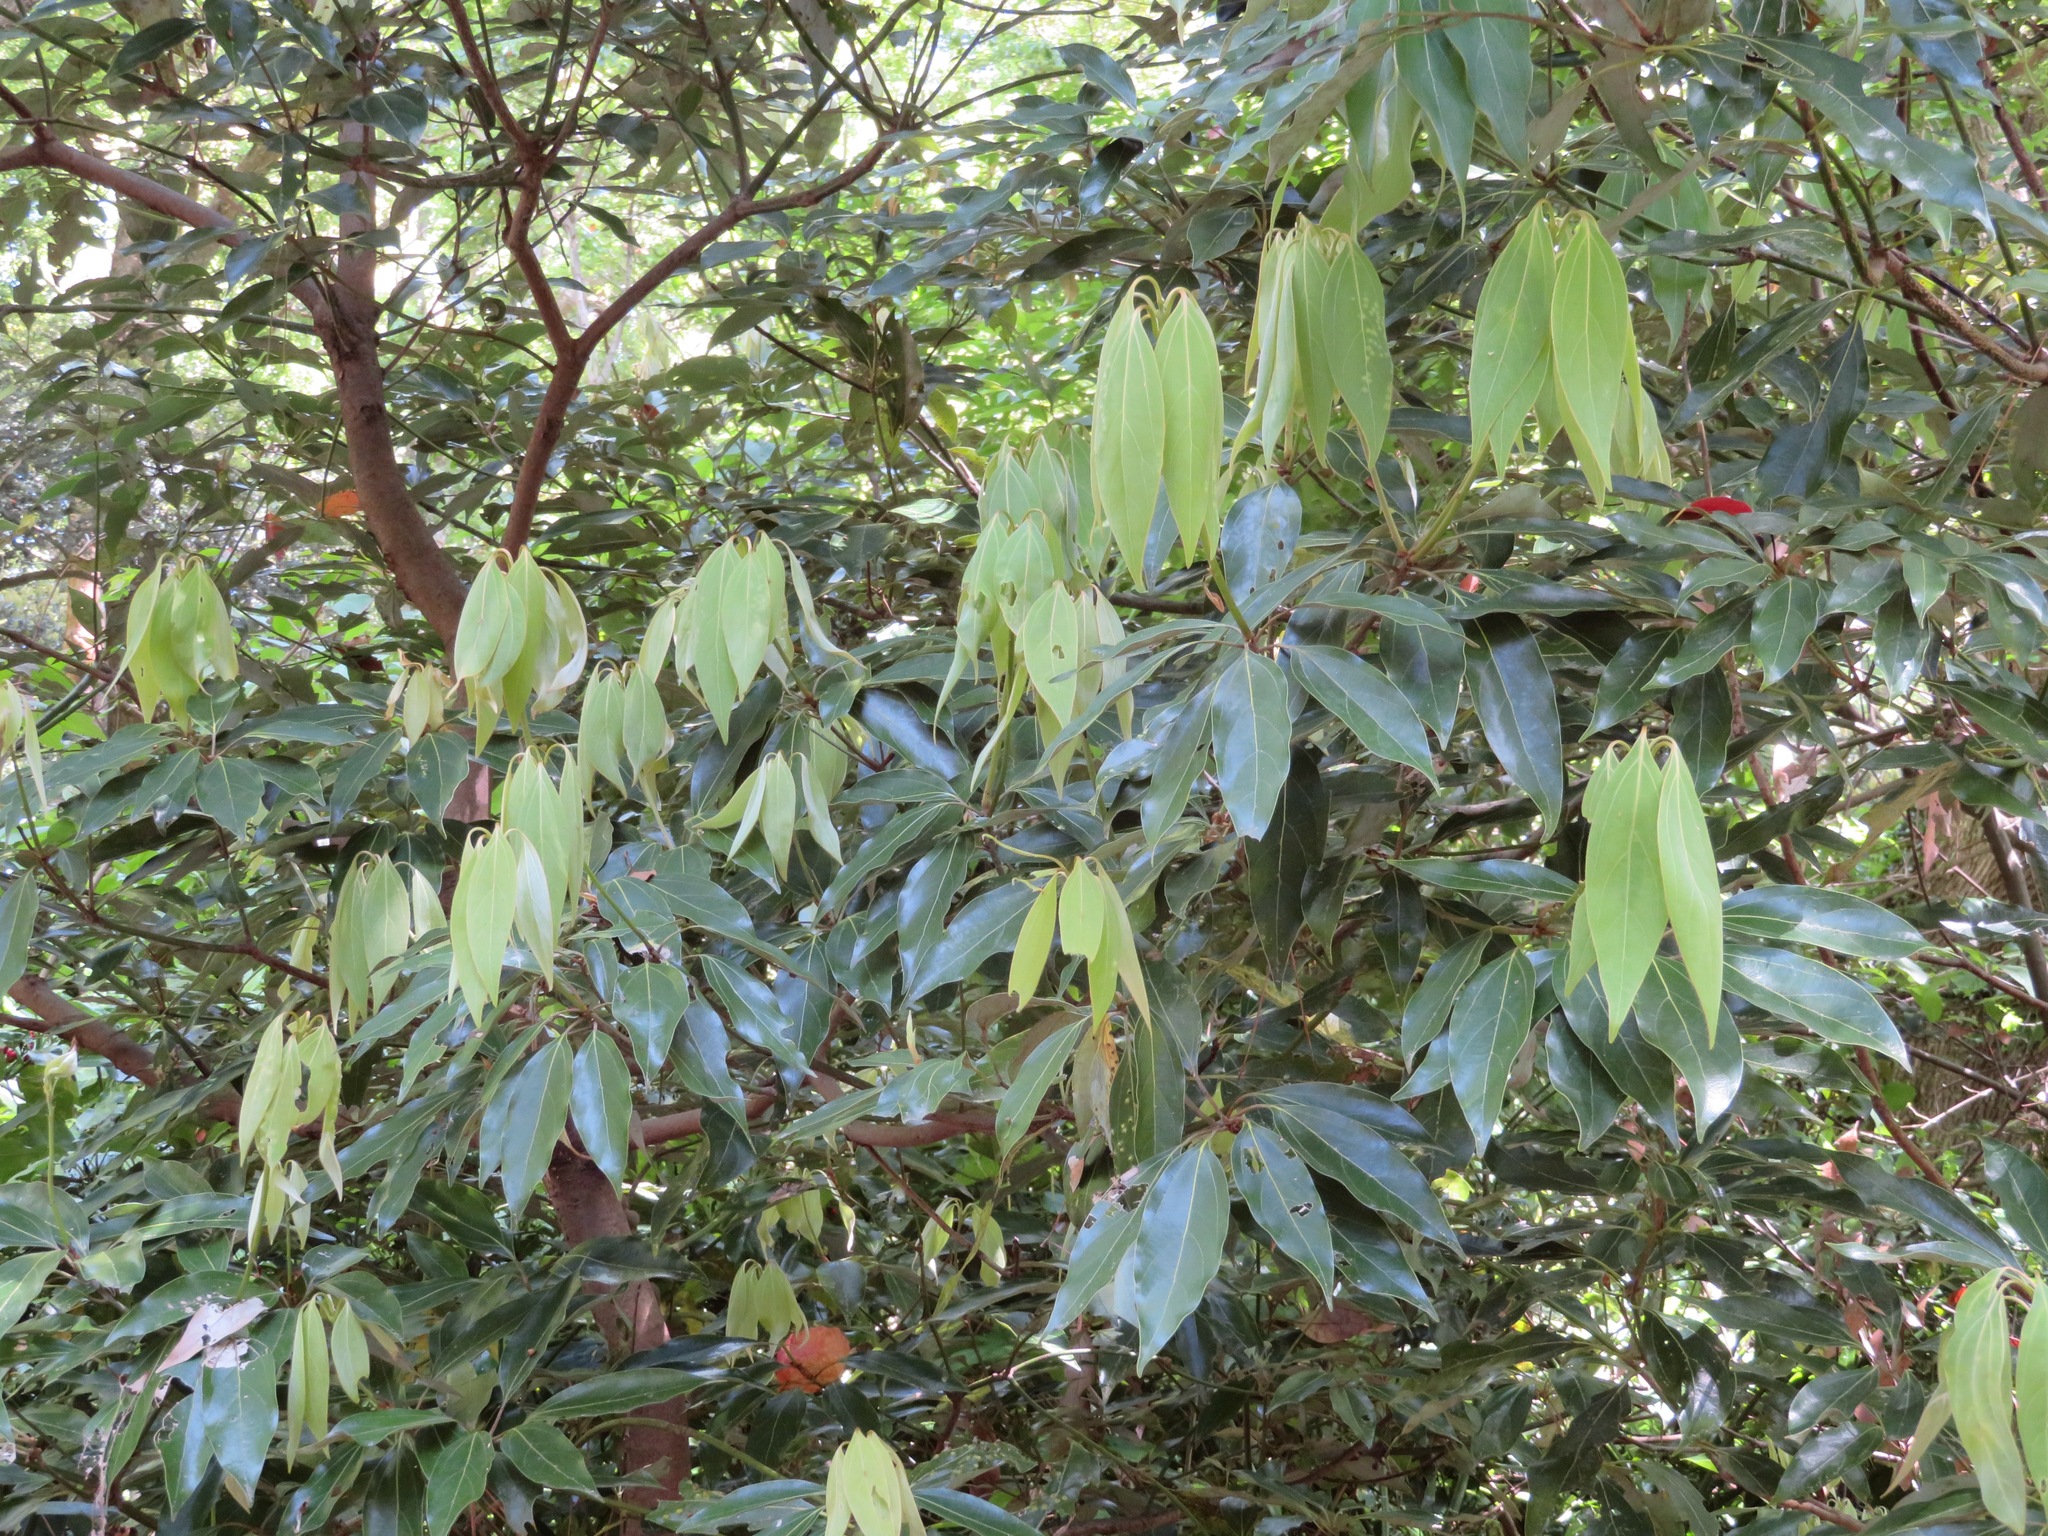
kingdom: Plantae
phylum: Tracheophyta
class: Magnoliopsida
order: Laurales
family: Lauraceae
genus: Neolitsea
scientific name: Neolitsea sericea
